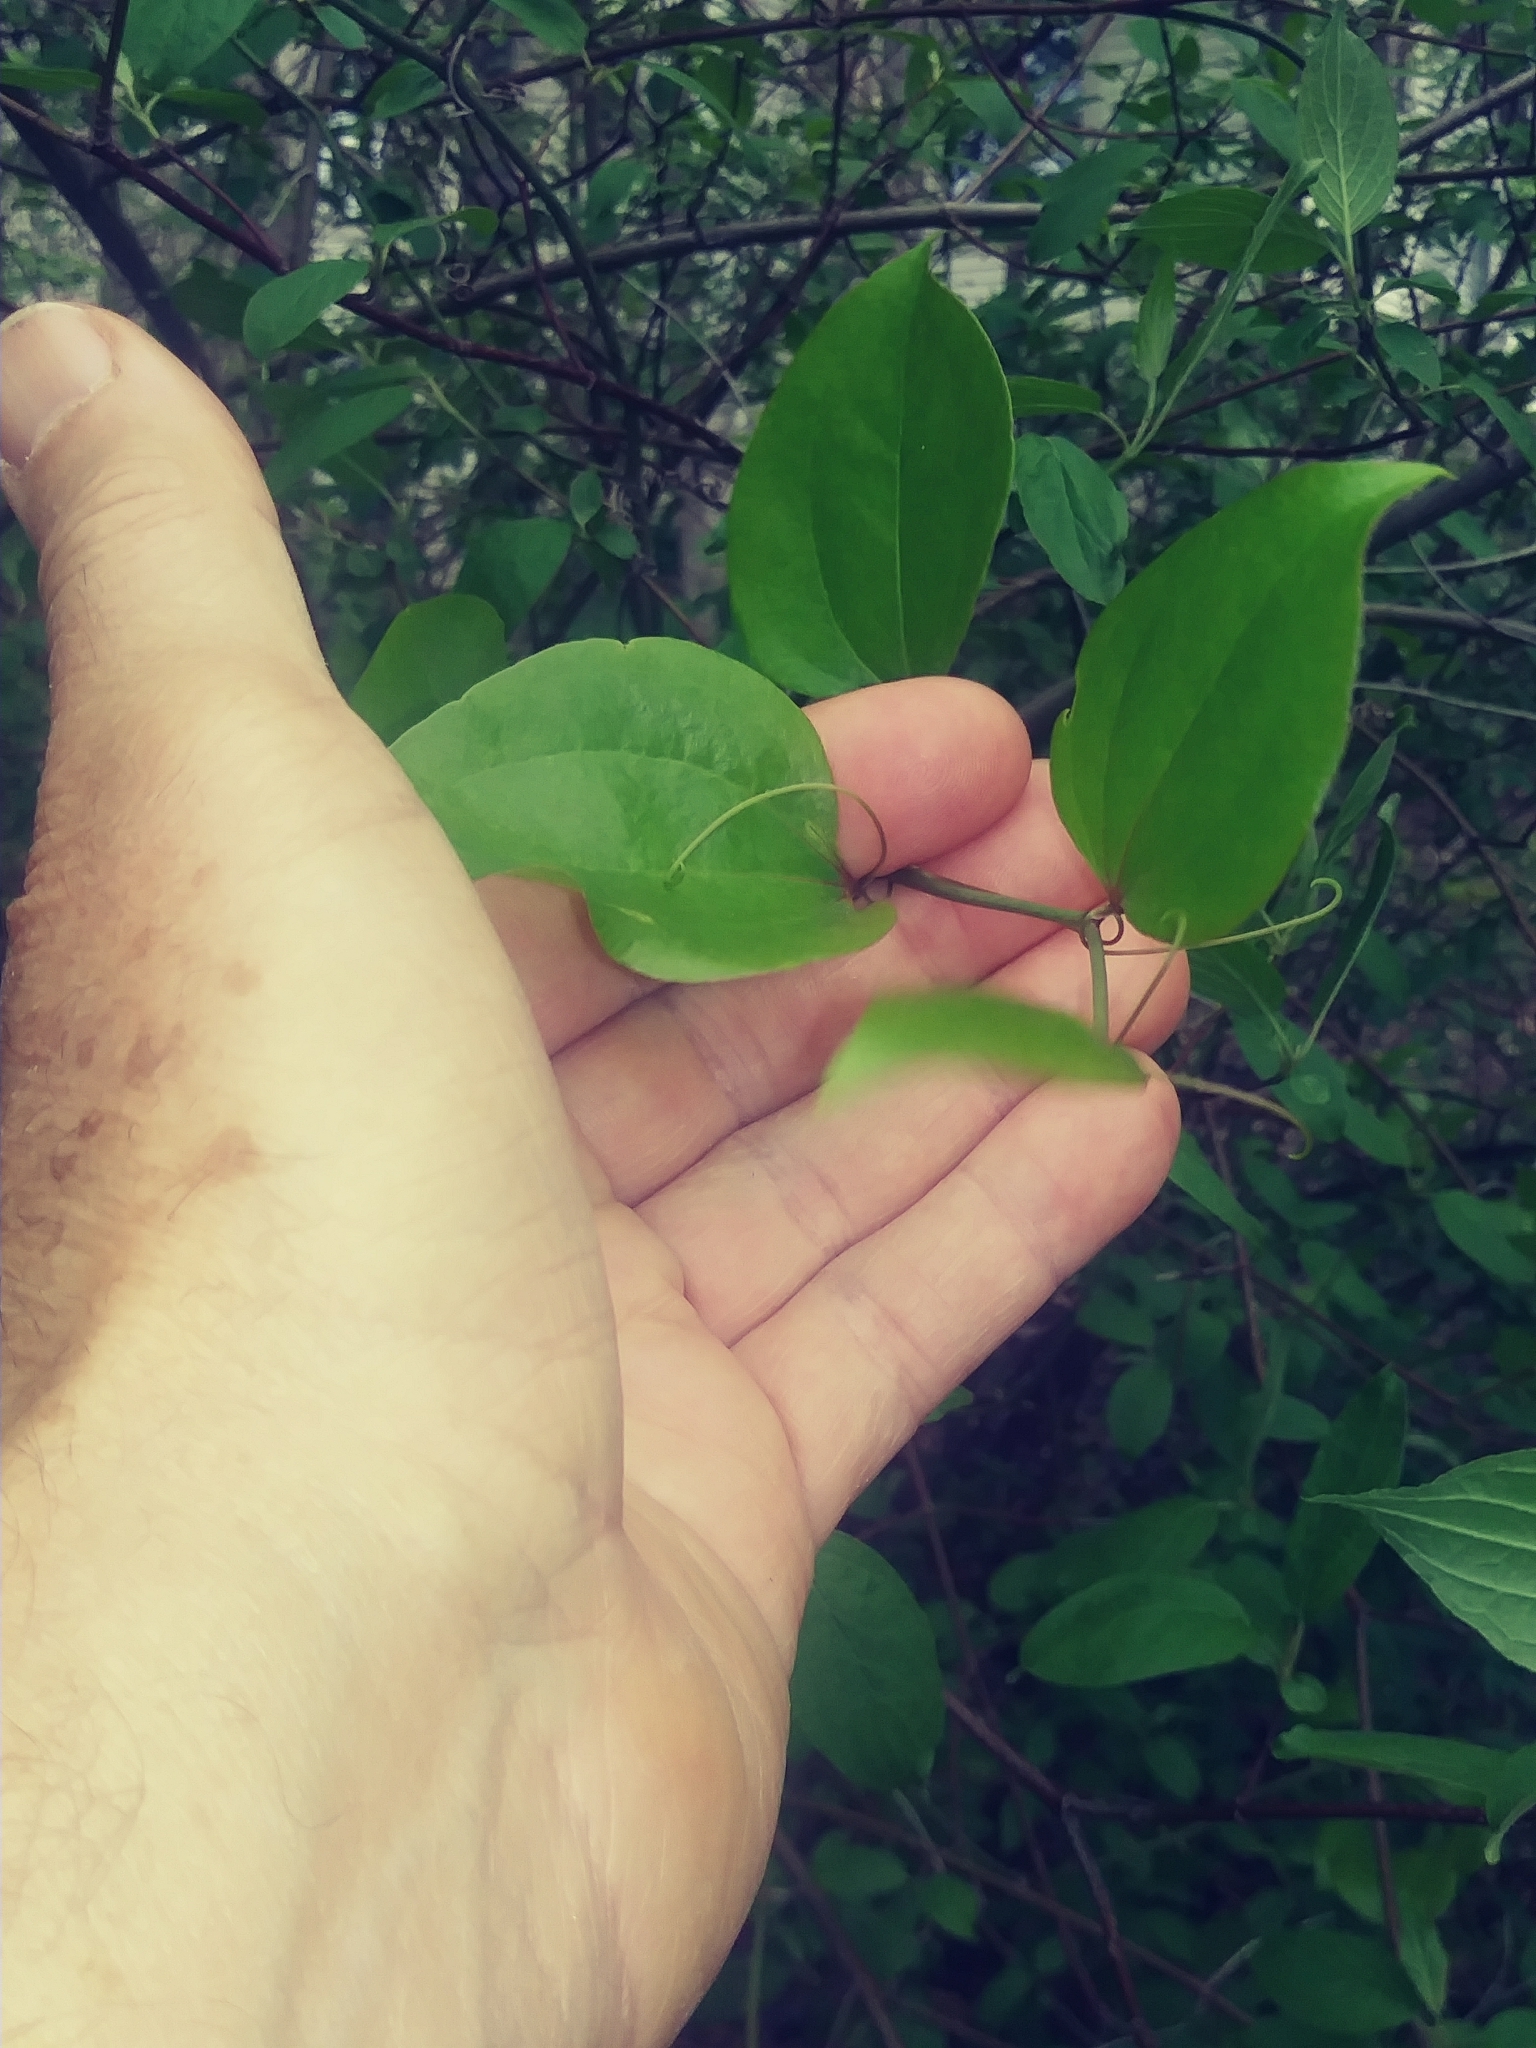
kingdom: Plantae
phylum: Tracheophyta
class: Liliopsida
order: Liliales
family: Smilacaceae
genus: Smilax
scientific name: Smilax rotundifolia
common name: Bullbriar
